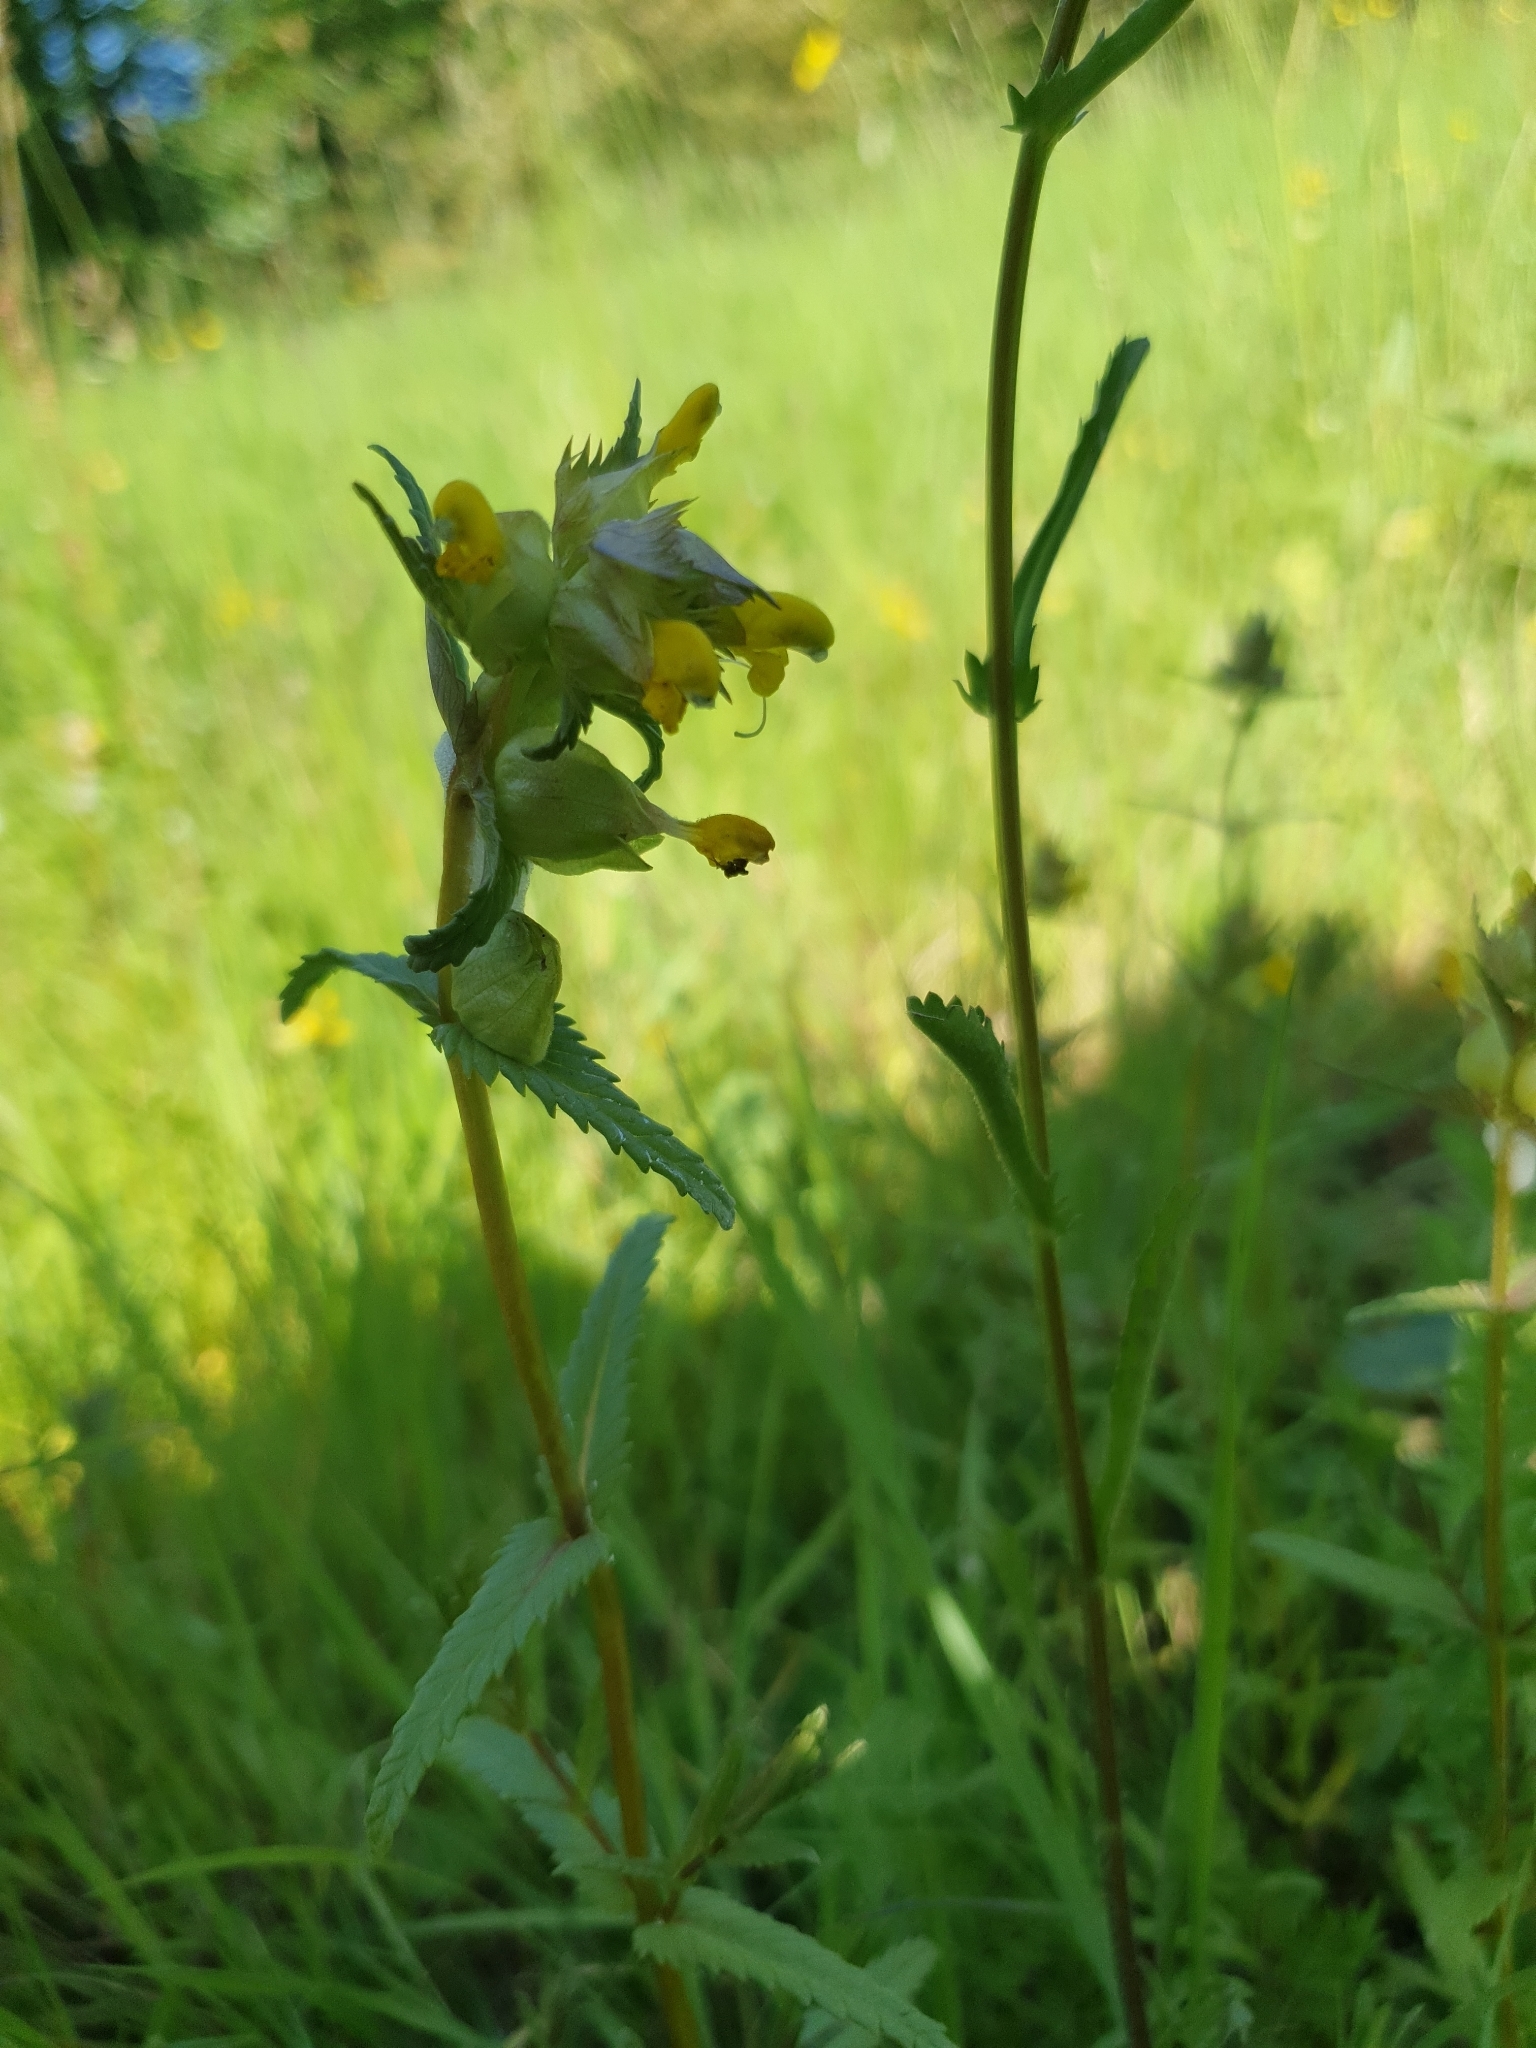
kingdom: Plantae
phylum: Tracheophyta
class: Magnoliopsida
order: Lamiales
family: Orobanchaceae
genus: Rhinanthus
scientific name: Rhinanthus minor
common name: Yellow-rattle
